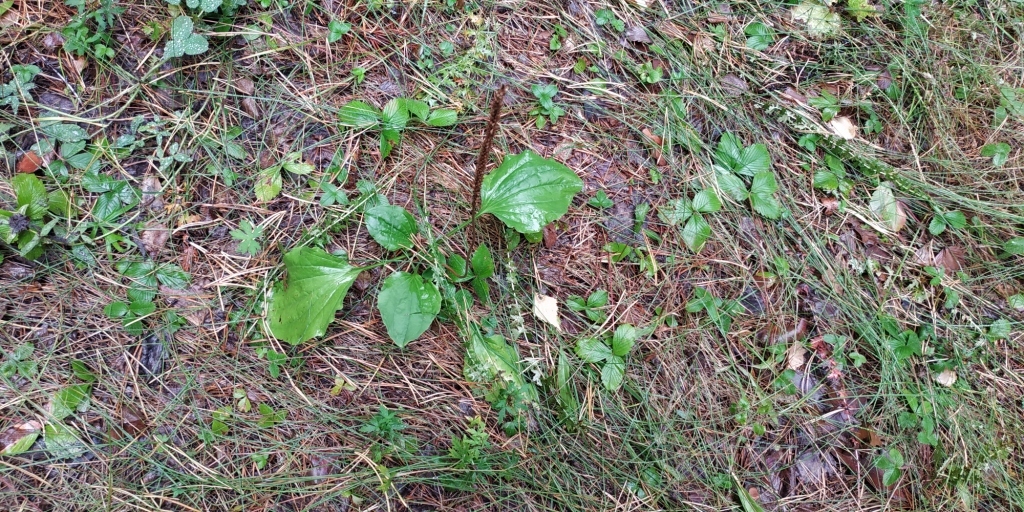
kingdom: Plantae
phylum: Tracheophyta
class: Magnoliopsida
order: Lamiales
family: Plantaginaceae
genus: Plantago
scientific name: Plantago major
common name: Common plantain
